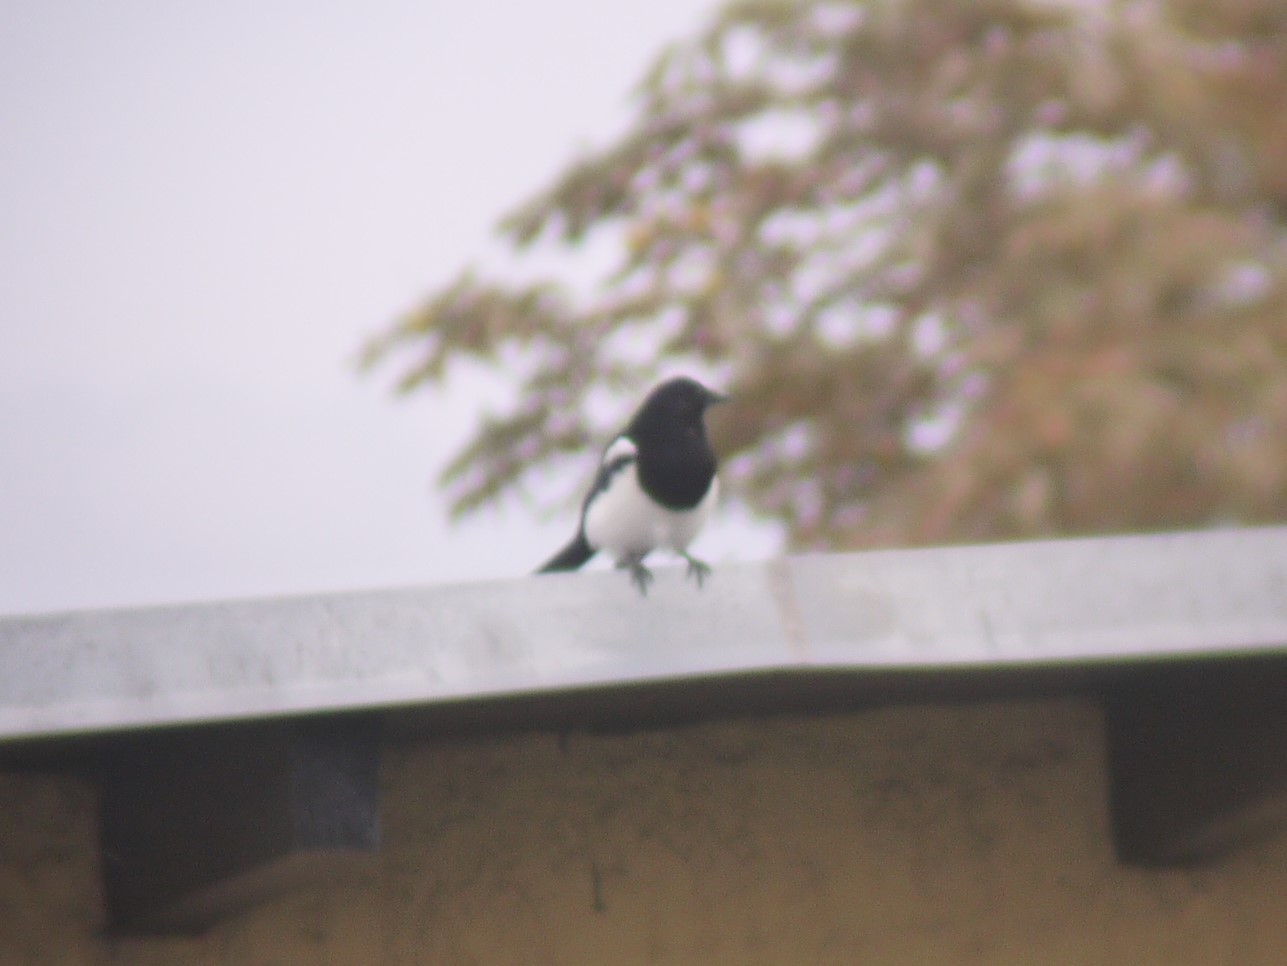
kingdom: Animalia
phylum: Chordata
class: Aves
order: Passeriformes
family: Corvidae
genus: Pica
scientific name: Pica pica
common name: Eurasian magpie
